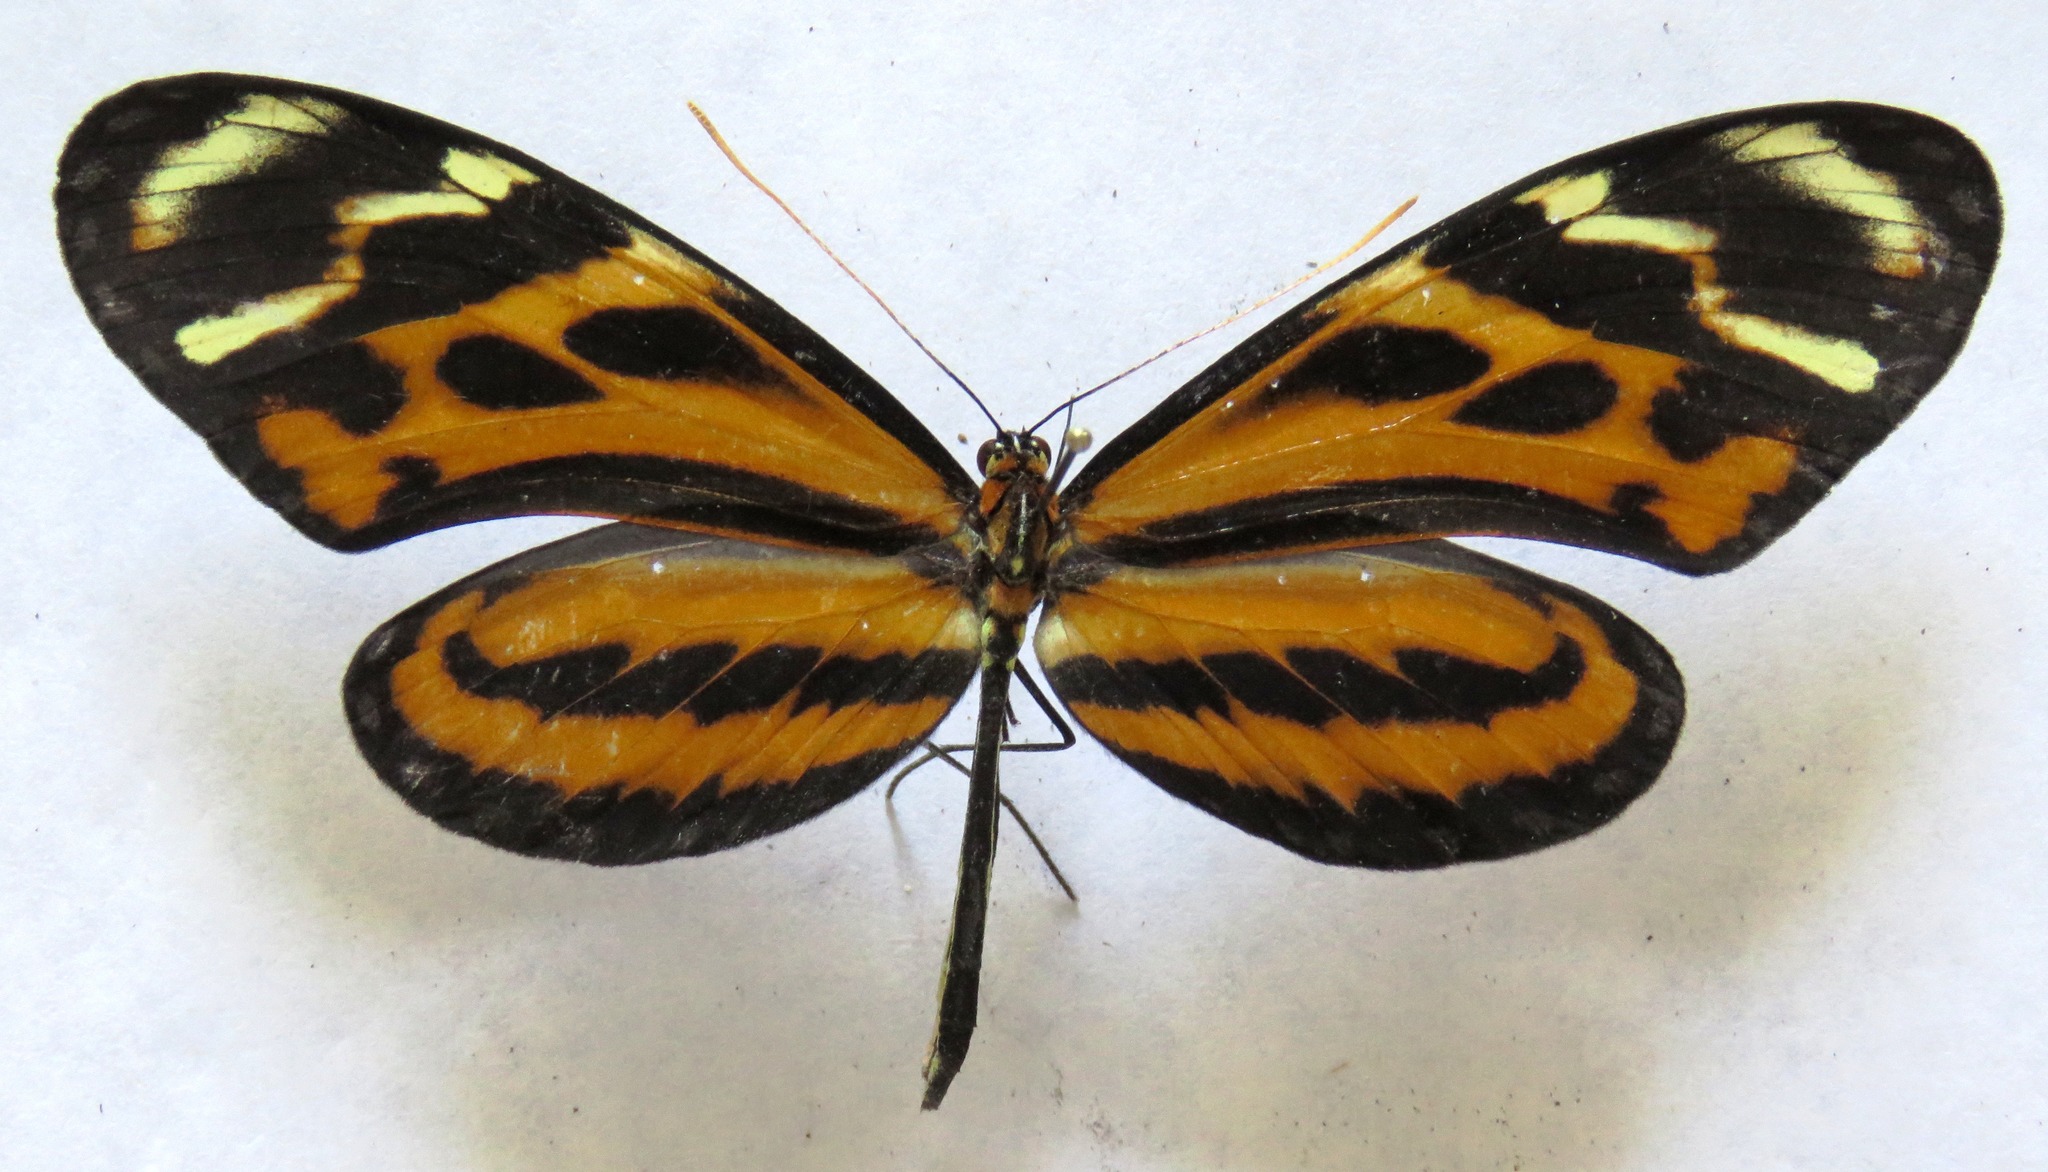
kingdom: Animalia
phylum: Arthropoda
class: Insecta
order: Lepidoptera
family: Nymphalidae
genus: Mechanitis
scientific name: Mechanitis menapis
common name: Menapis tigerwing
